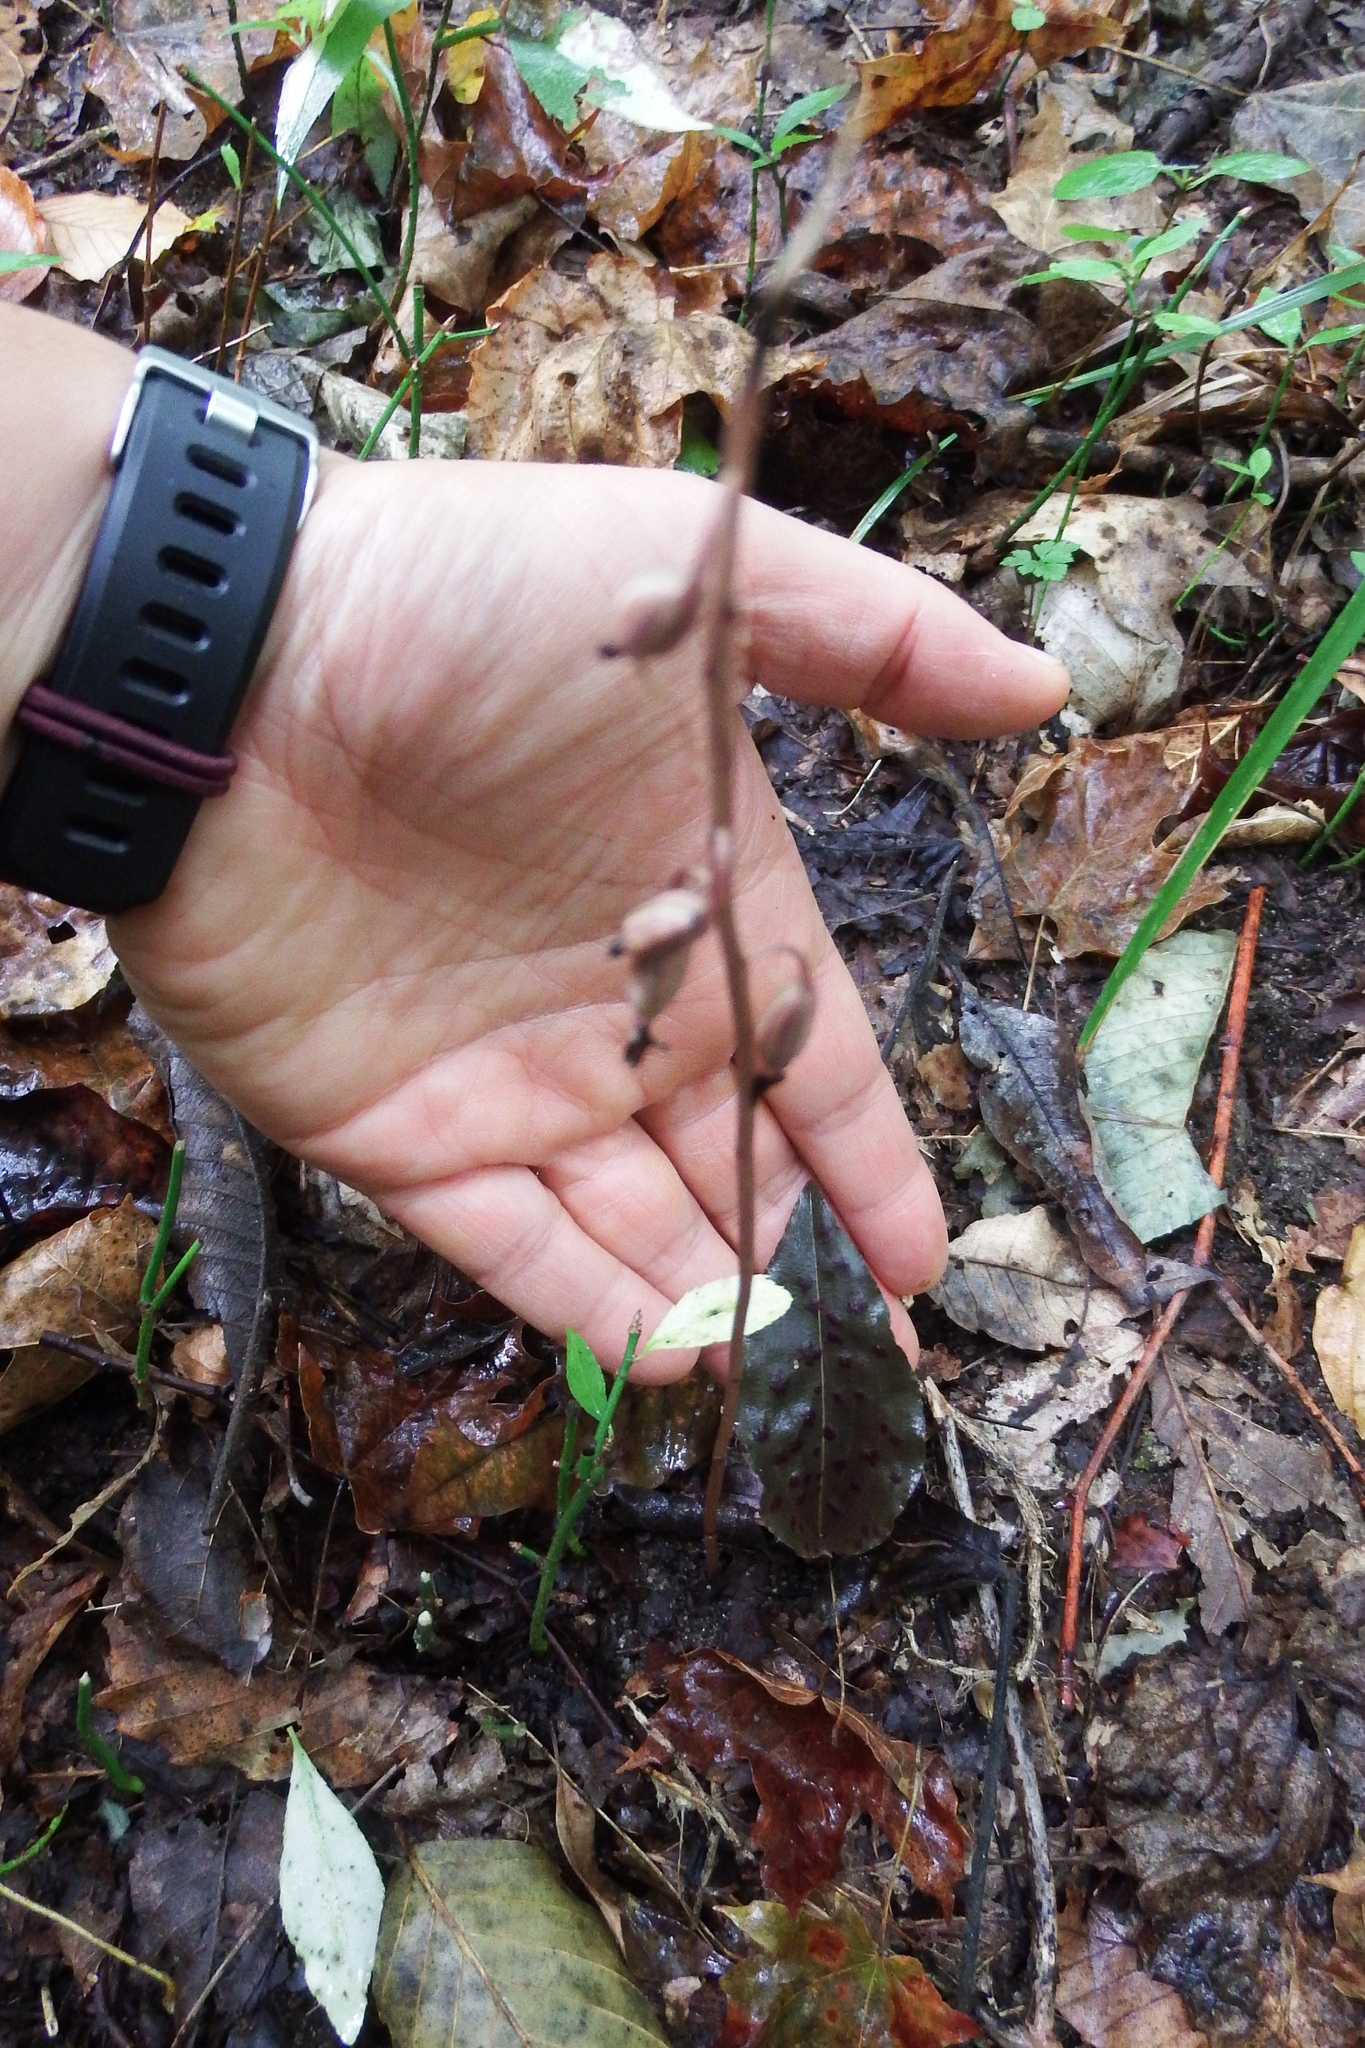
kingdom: Plantae
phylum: Tracheophyta
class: Liliopsida
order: Asparagales
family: Orchidaceae
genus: Tipularia
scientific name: Tipularia discolor
